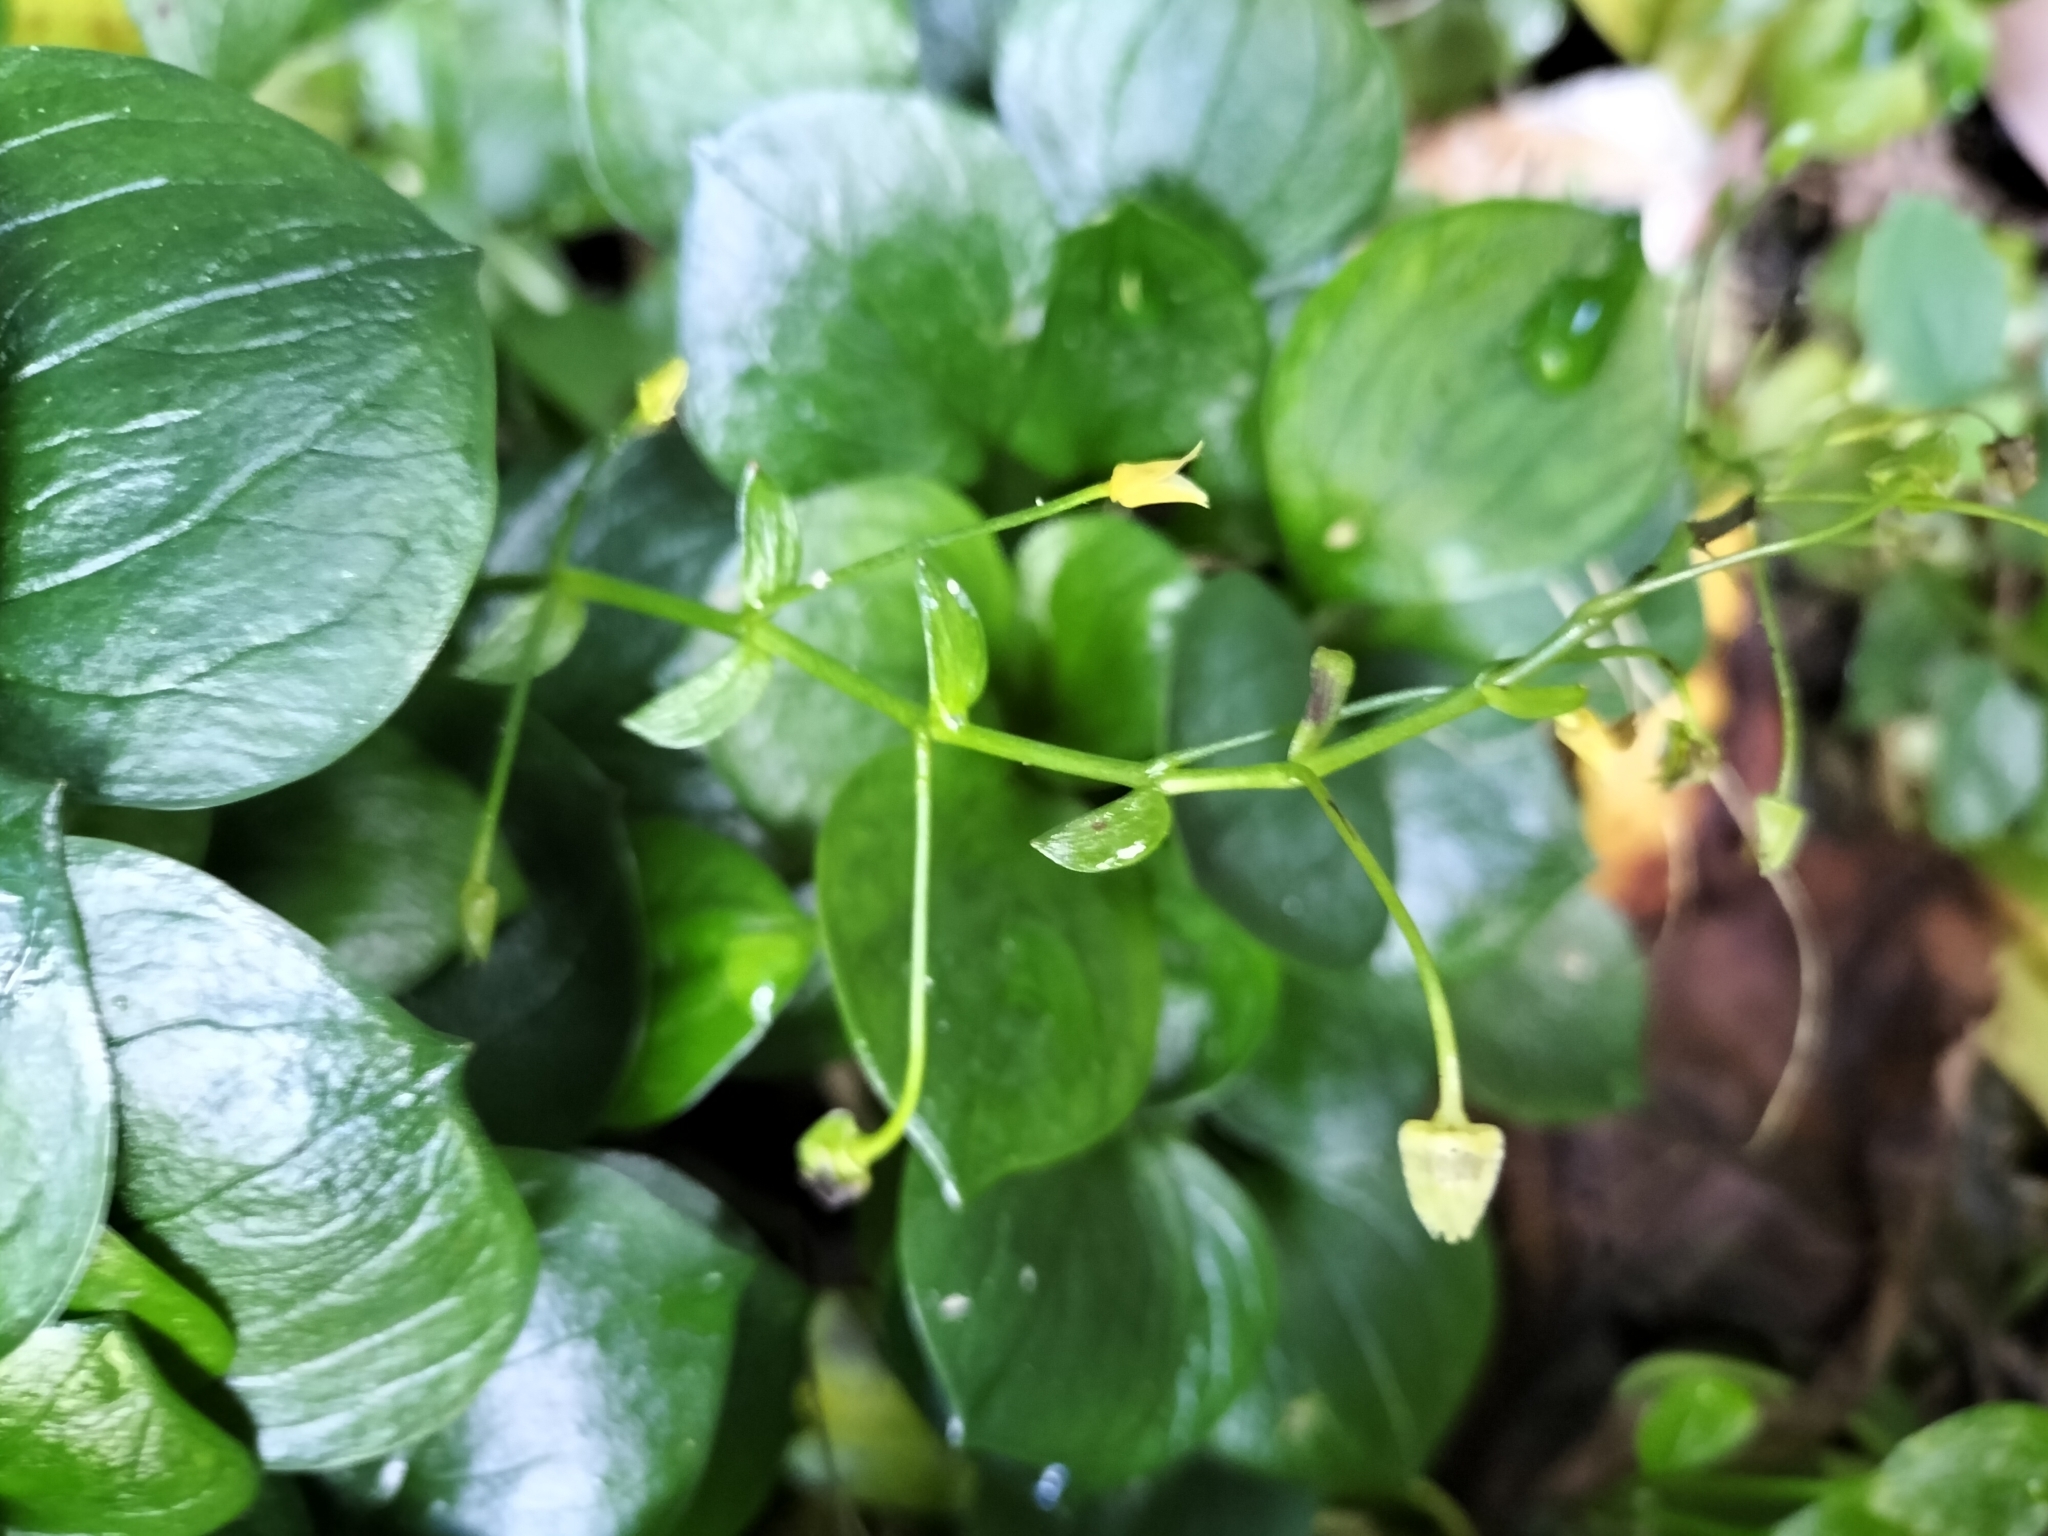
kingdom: Plantae
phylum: Tracheophyta
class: Magnoliopsida
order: Caryophyllales
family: Montiaceae
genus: Claytonia
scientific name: Claytonia sibirica
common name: Pink purslane
